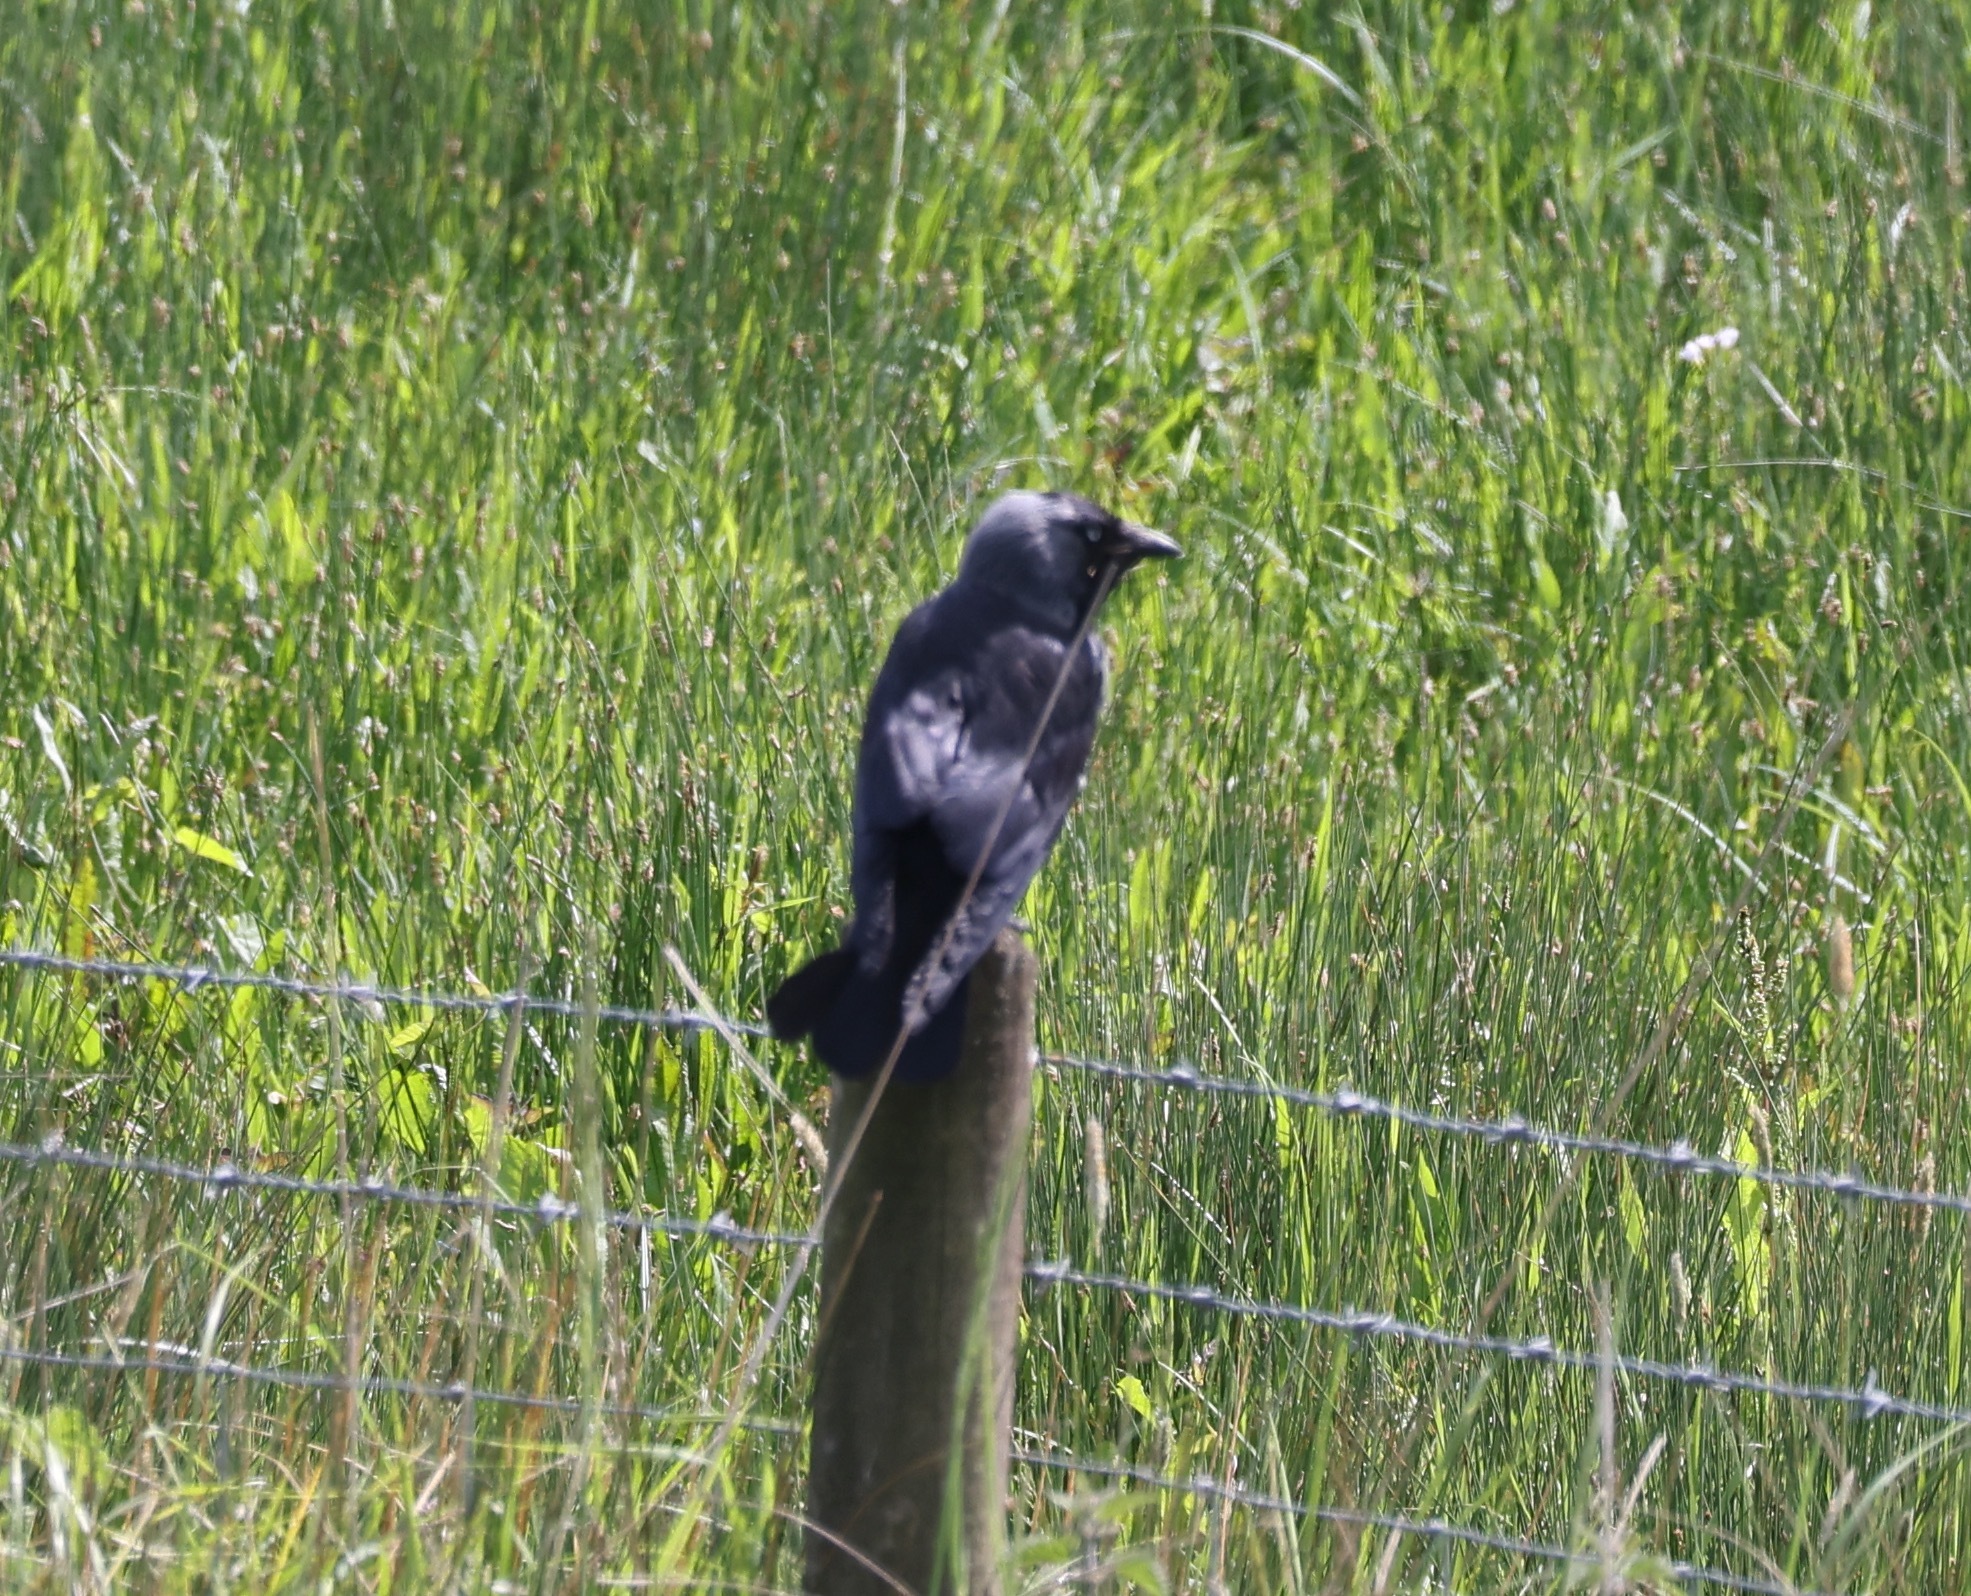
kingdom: Animalia
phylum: Chordata
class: Aves
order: Passeriformes
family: Corvidae
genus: Coloeus
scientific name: Coloeus monedula
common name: Western jackdaw
